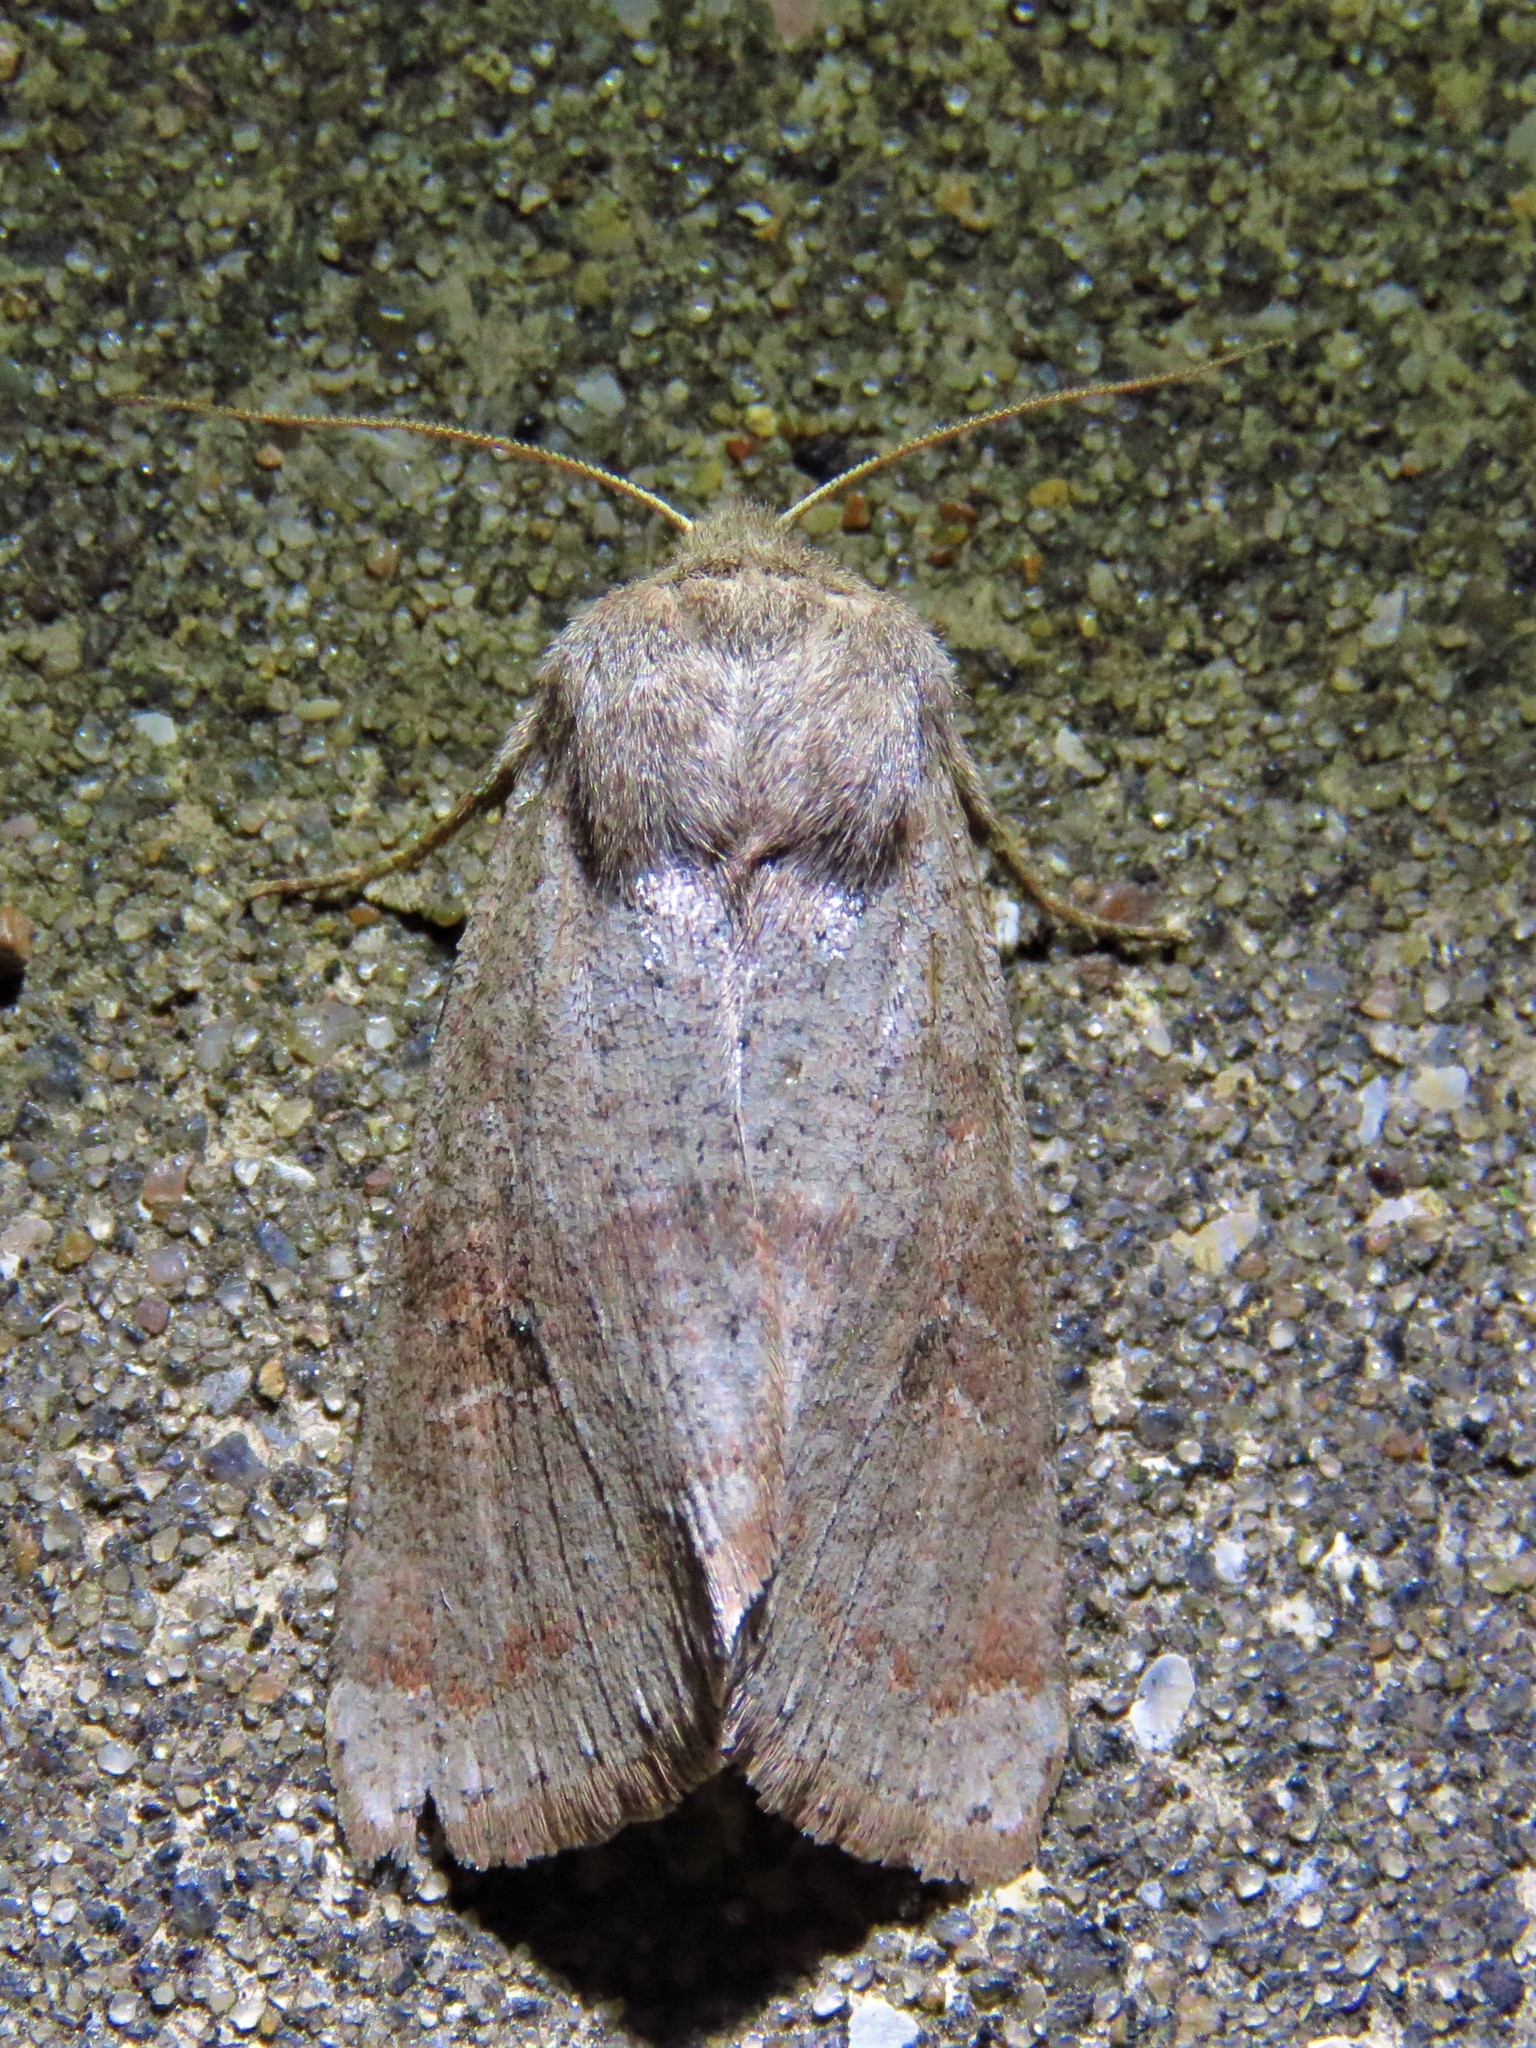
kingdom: Animalia
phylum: Arthropoda
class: Insecta
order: Lepidoptera
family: Noctuidae
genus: Orthosia
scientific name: Orthosia alurina
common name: Gray quaker
